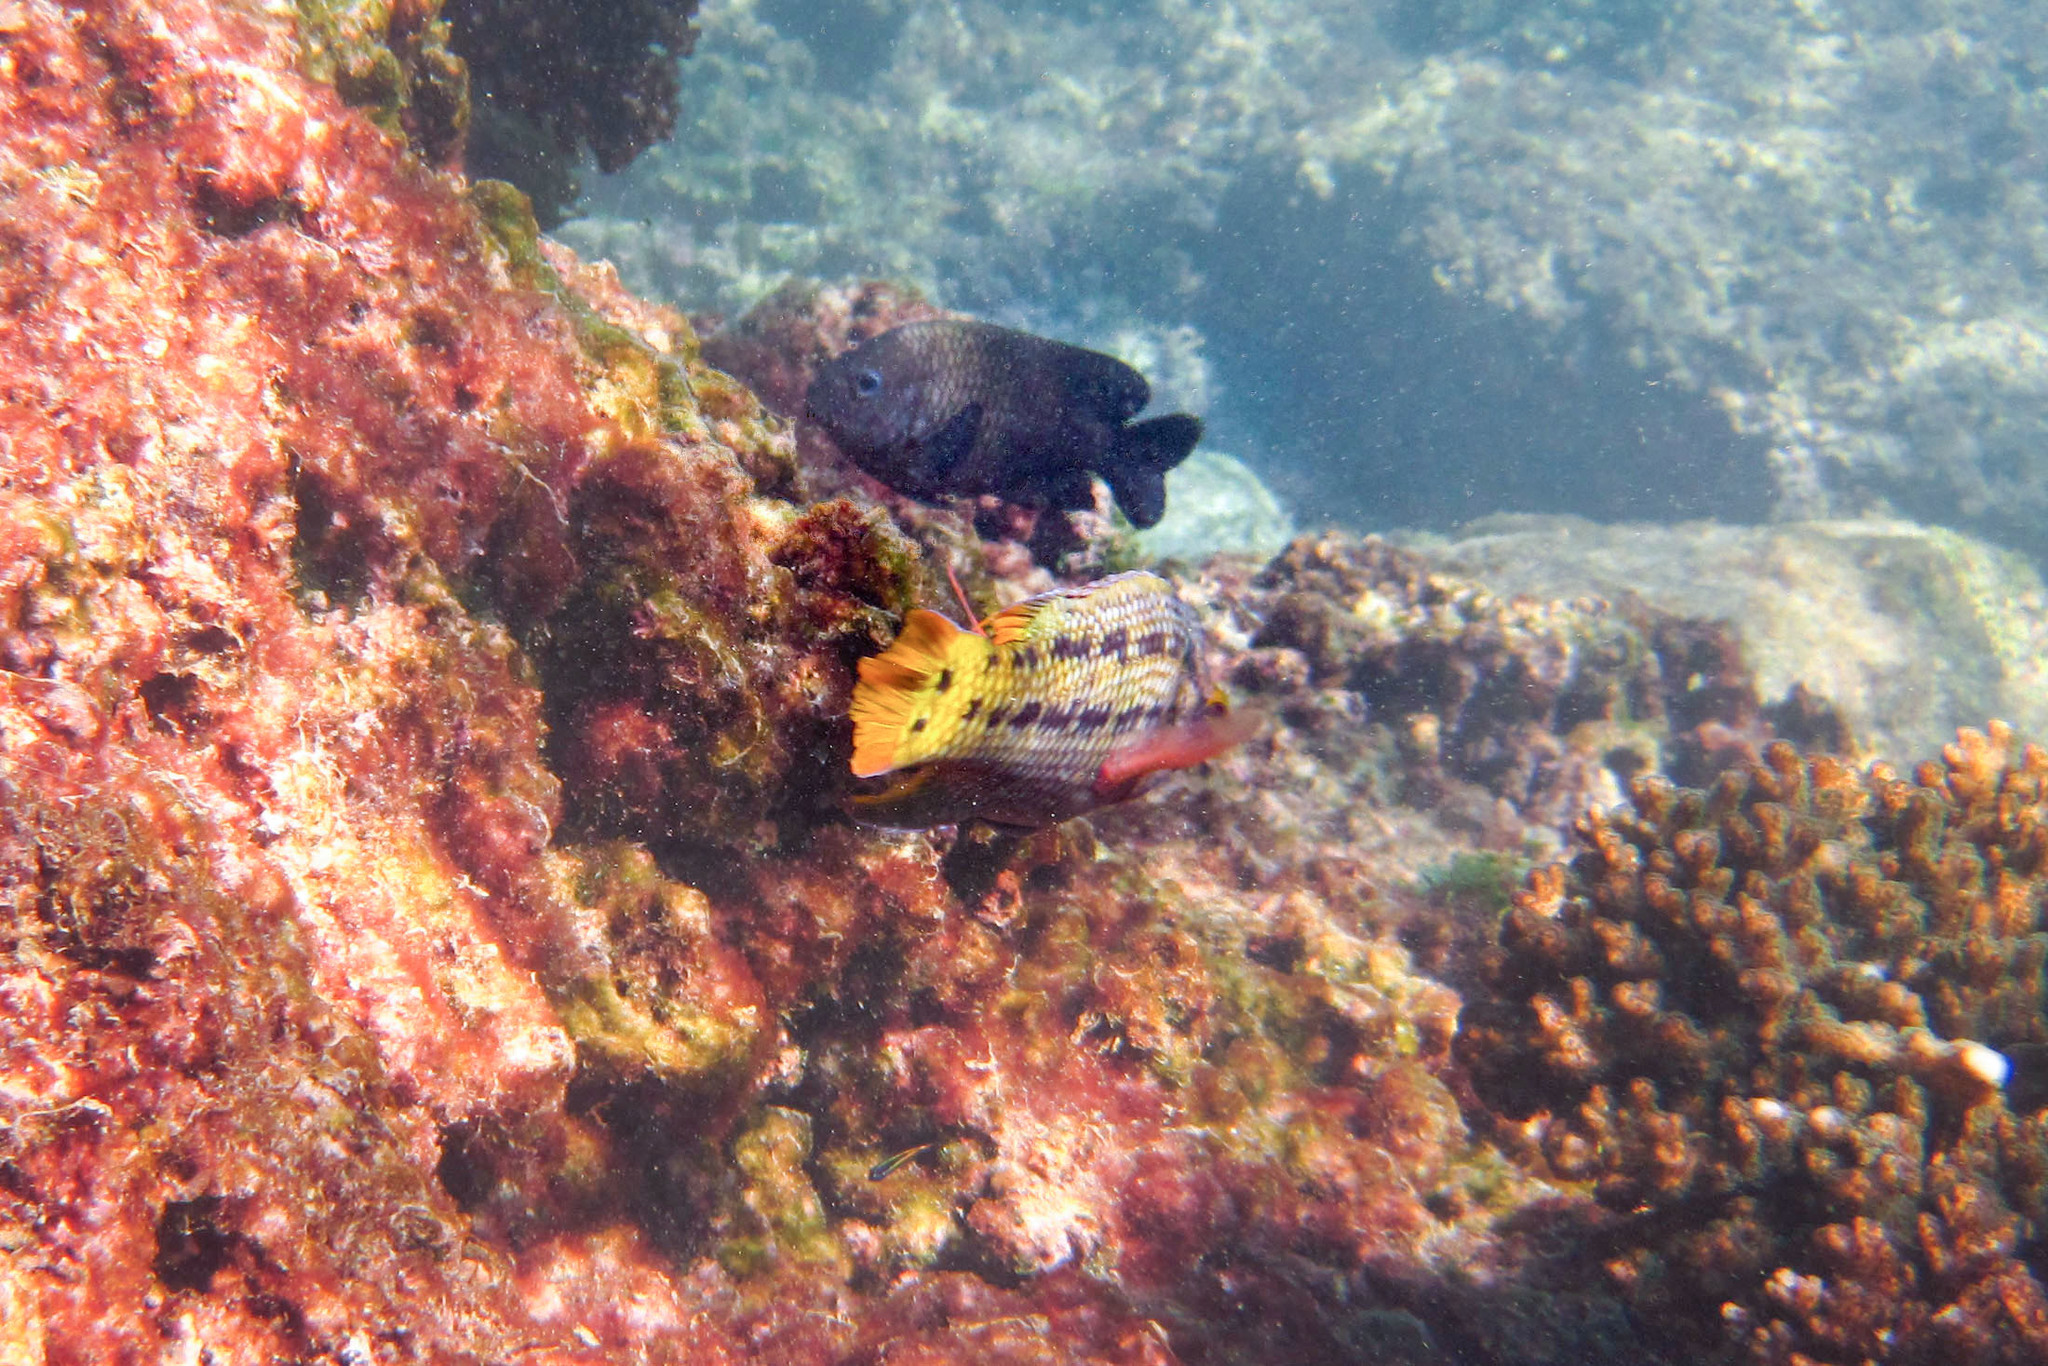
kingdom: Animalia
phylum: Chordata
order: Perciformes
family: Pomacentridae
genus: Stegastes
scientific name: Stegastes acapulcoensis
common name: Acapulco damselfish
